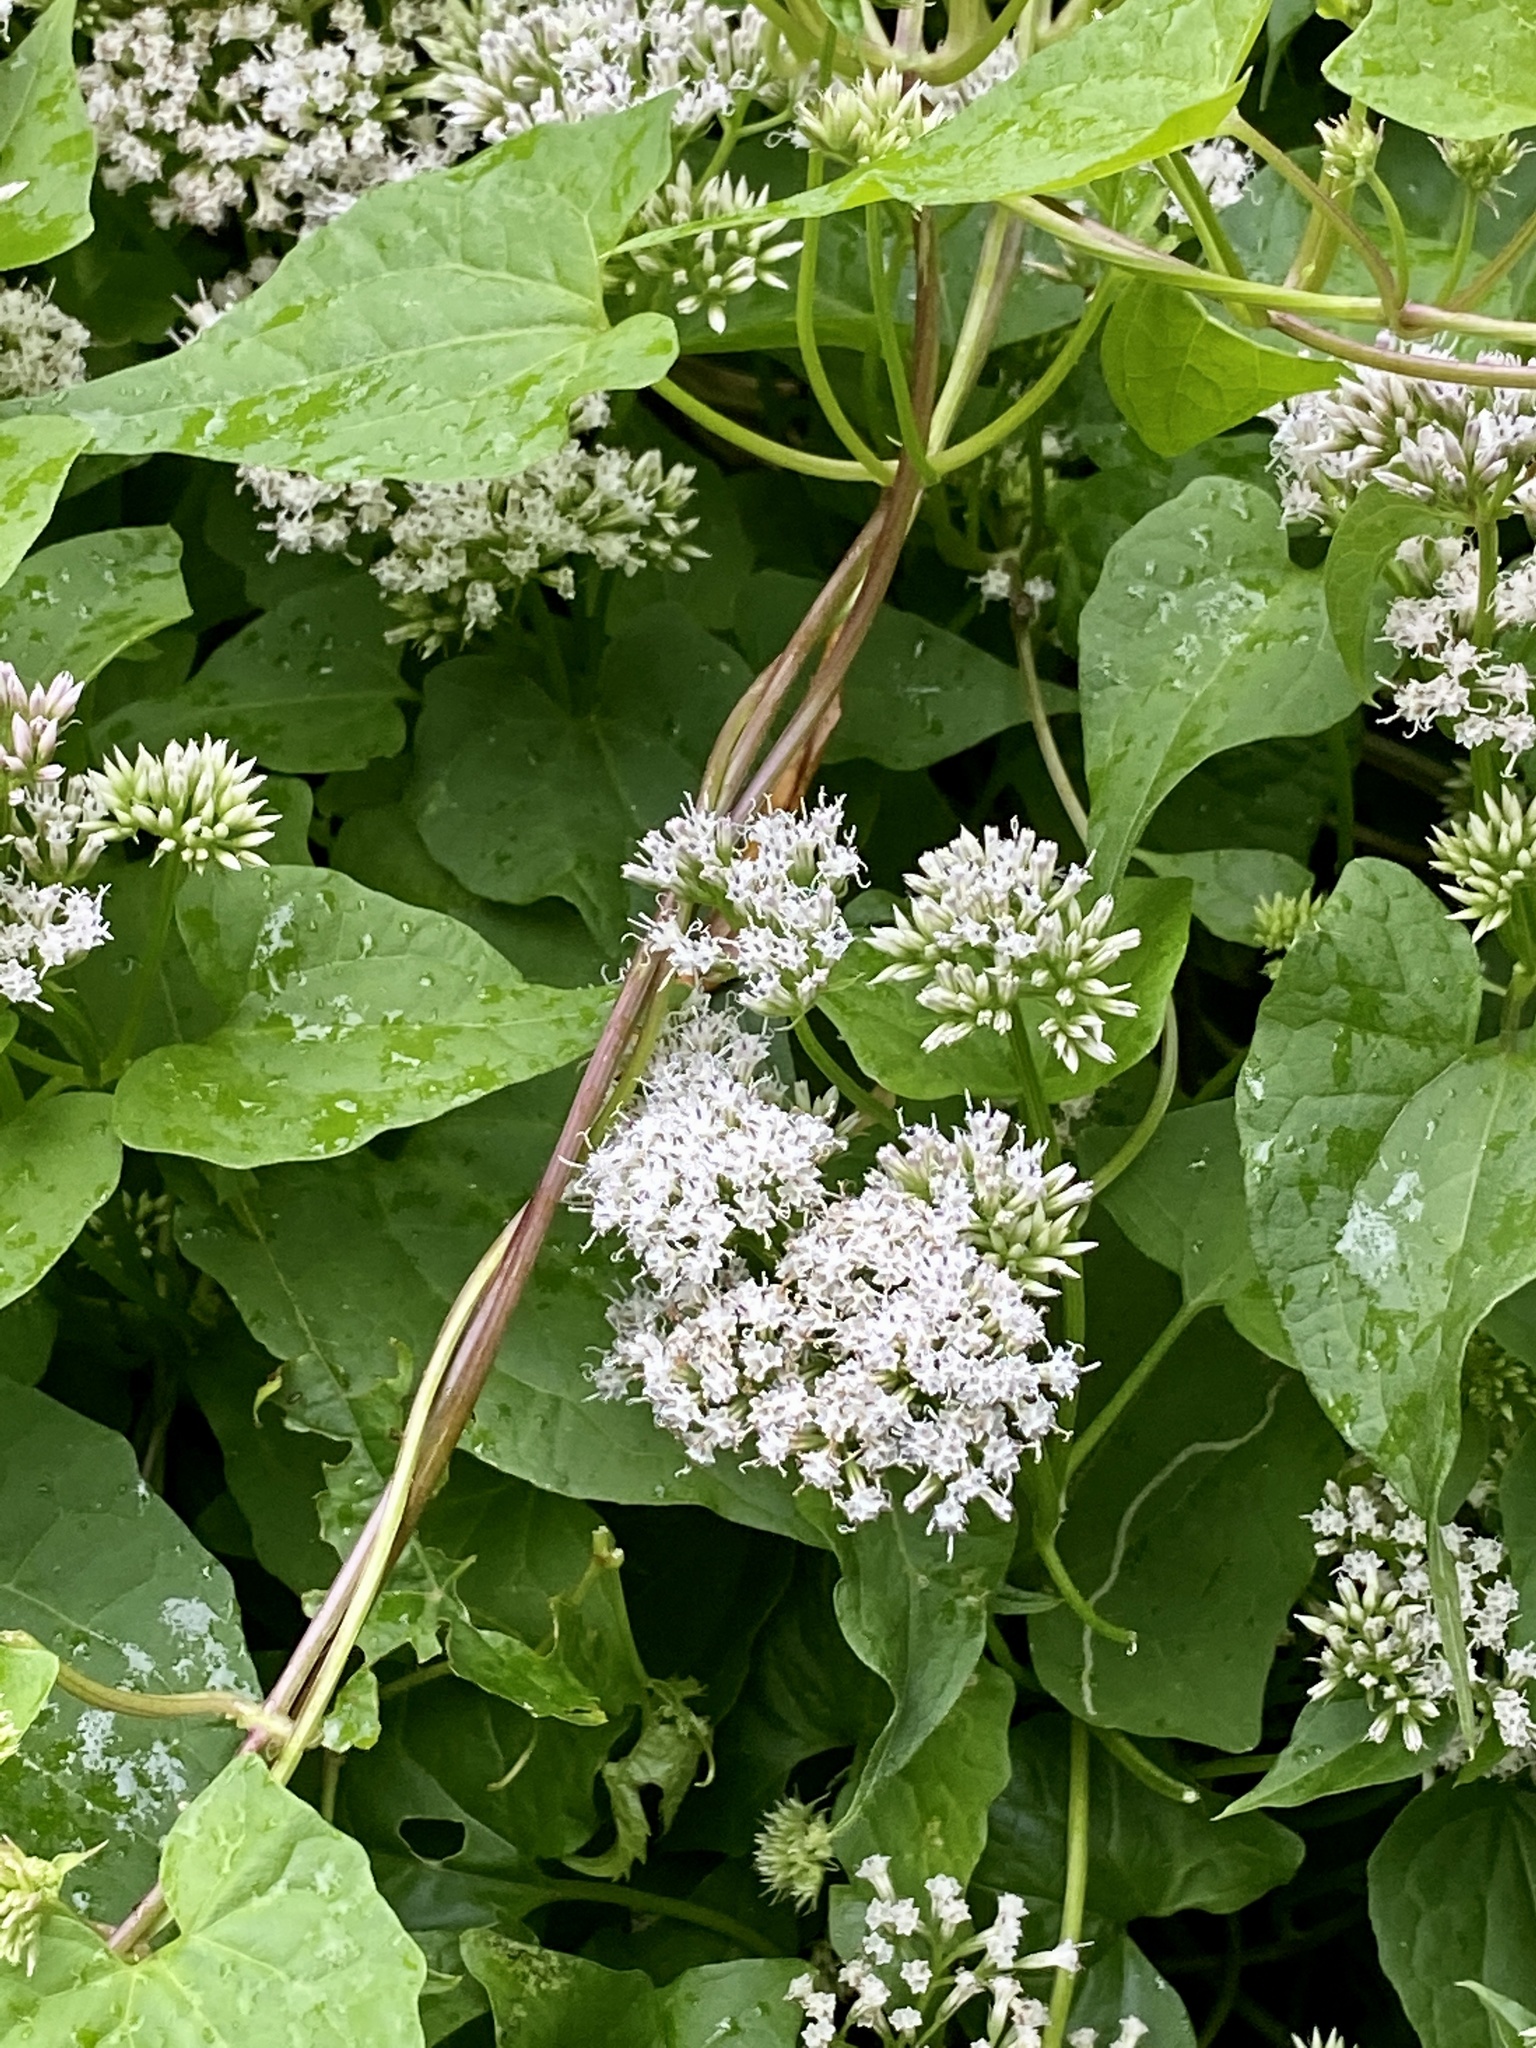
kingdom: Plantae
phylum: Tracheophyta
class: Magnoliopsida
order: Asterales
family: Asteraceae
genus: Mikania
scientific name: Mikania scandens
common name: Climbing hempvine
